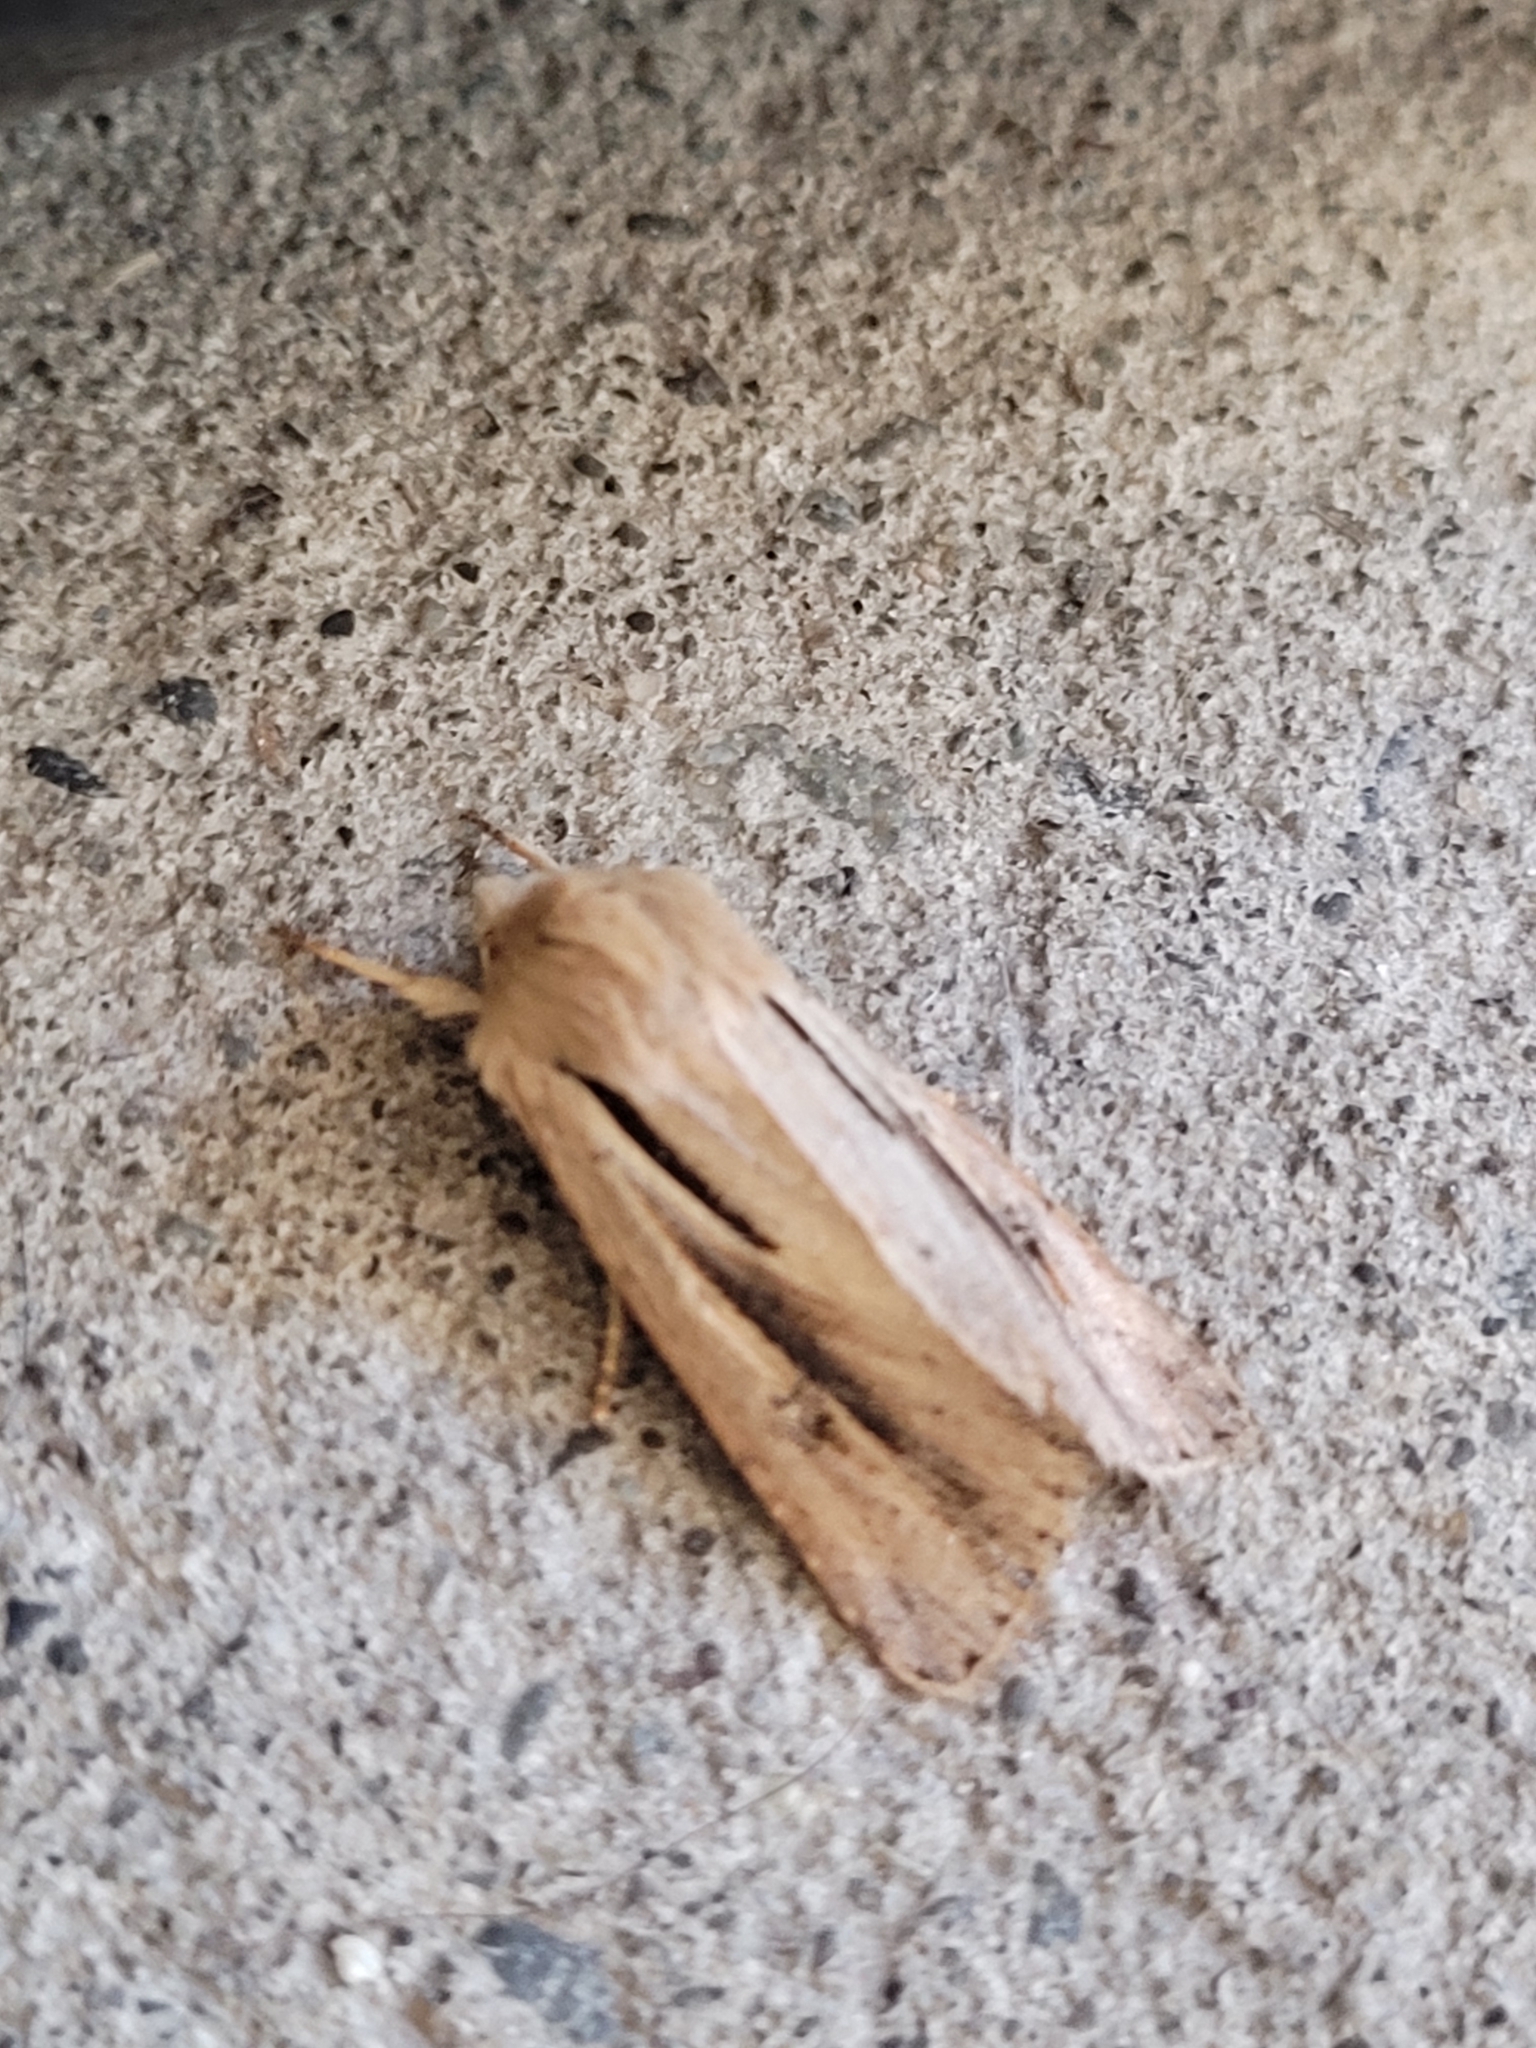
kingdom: Animalia
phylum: Arthropoda
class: Insecta
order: Lepidoptera
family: Noctuidae
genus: Ichneutica
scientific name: Ichneutica propria
